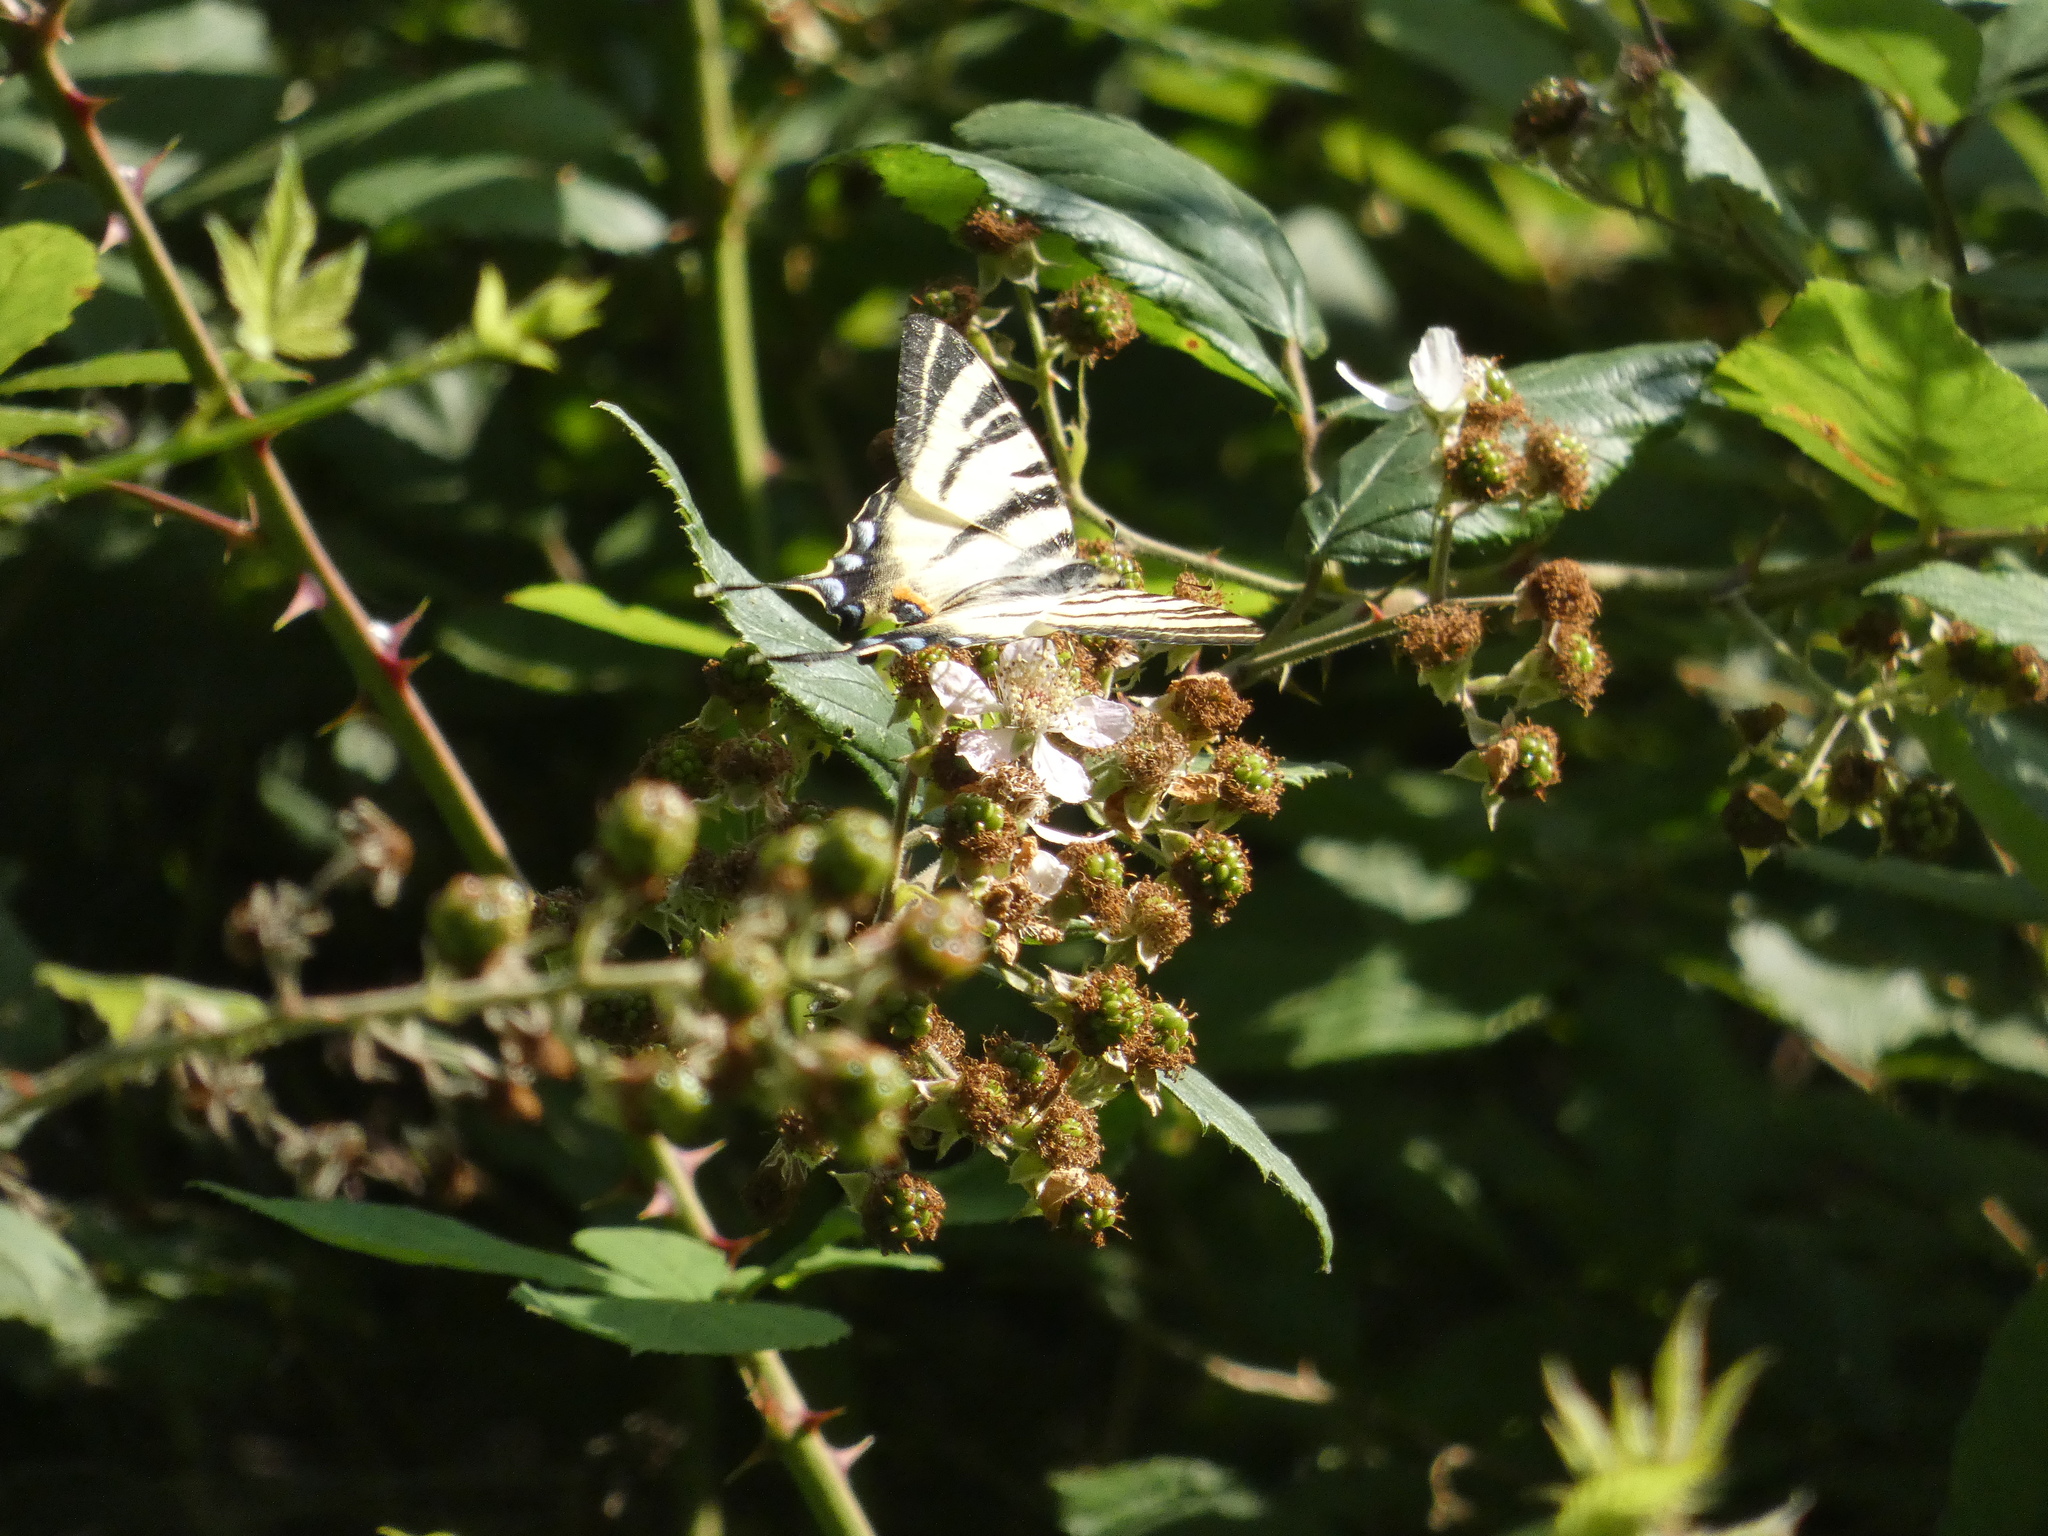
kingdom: Animalia
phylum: Arthropoda
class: Insecta
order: Lepidoptera
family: Papilionidae
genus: Iphiclides
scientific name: Iphiclides podalirius
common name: Scarce swallowtail
